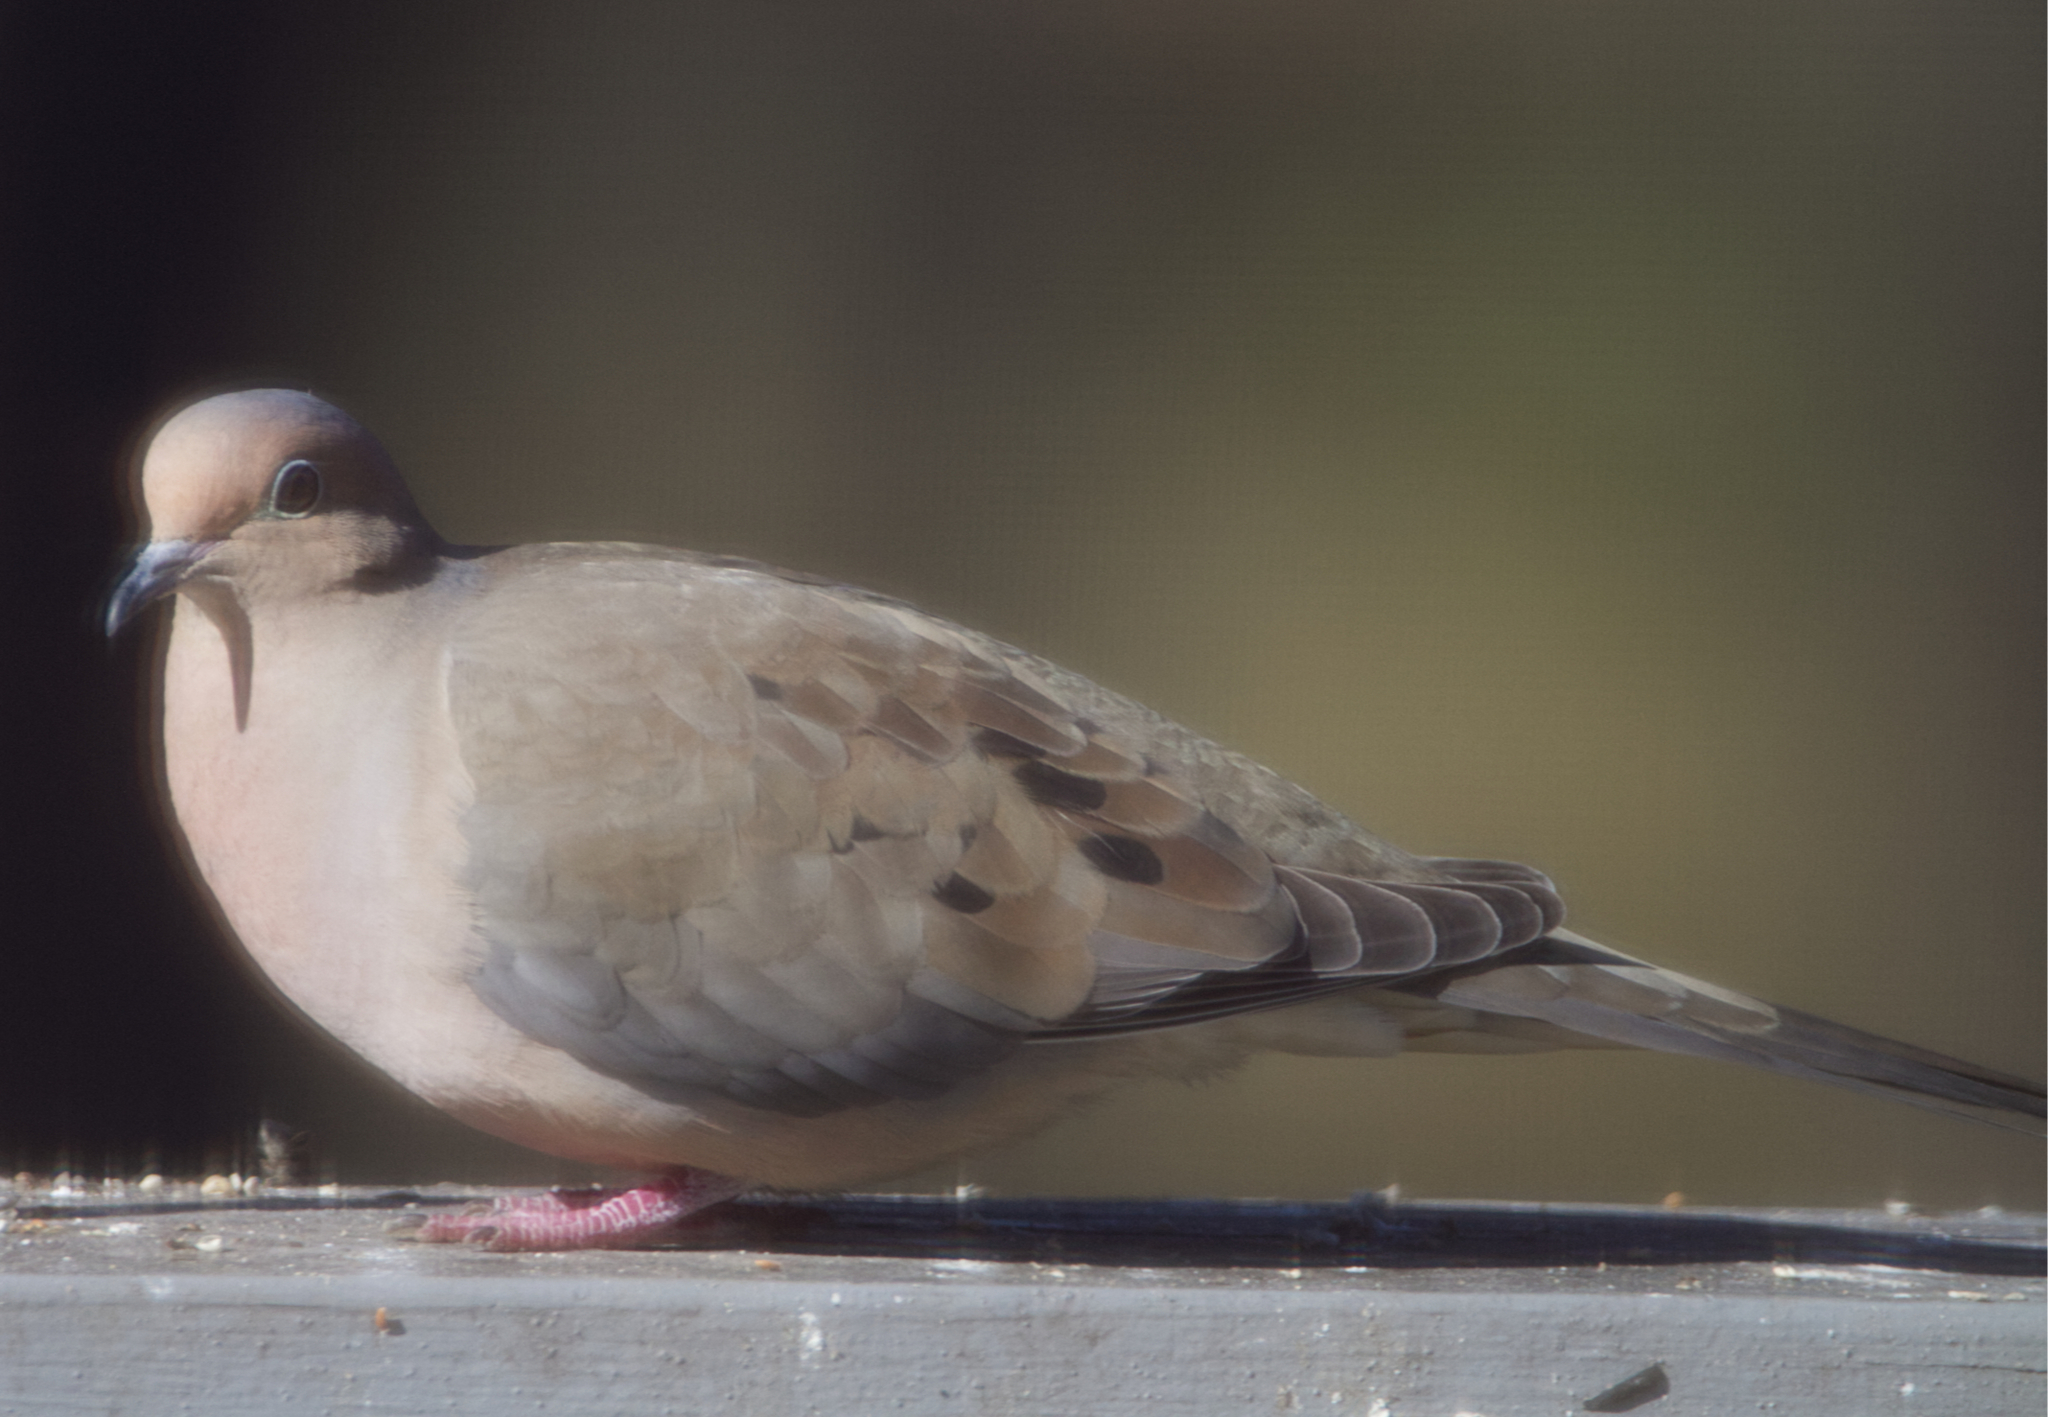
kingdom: Animalia
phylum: Chordata
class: Aves
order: Columbiformes
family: Columbidae
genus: Zenaida
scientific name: Zenaida macroura
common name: Mourning dove
